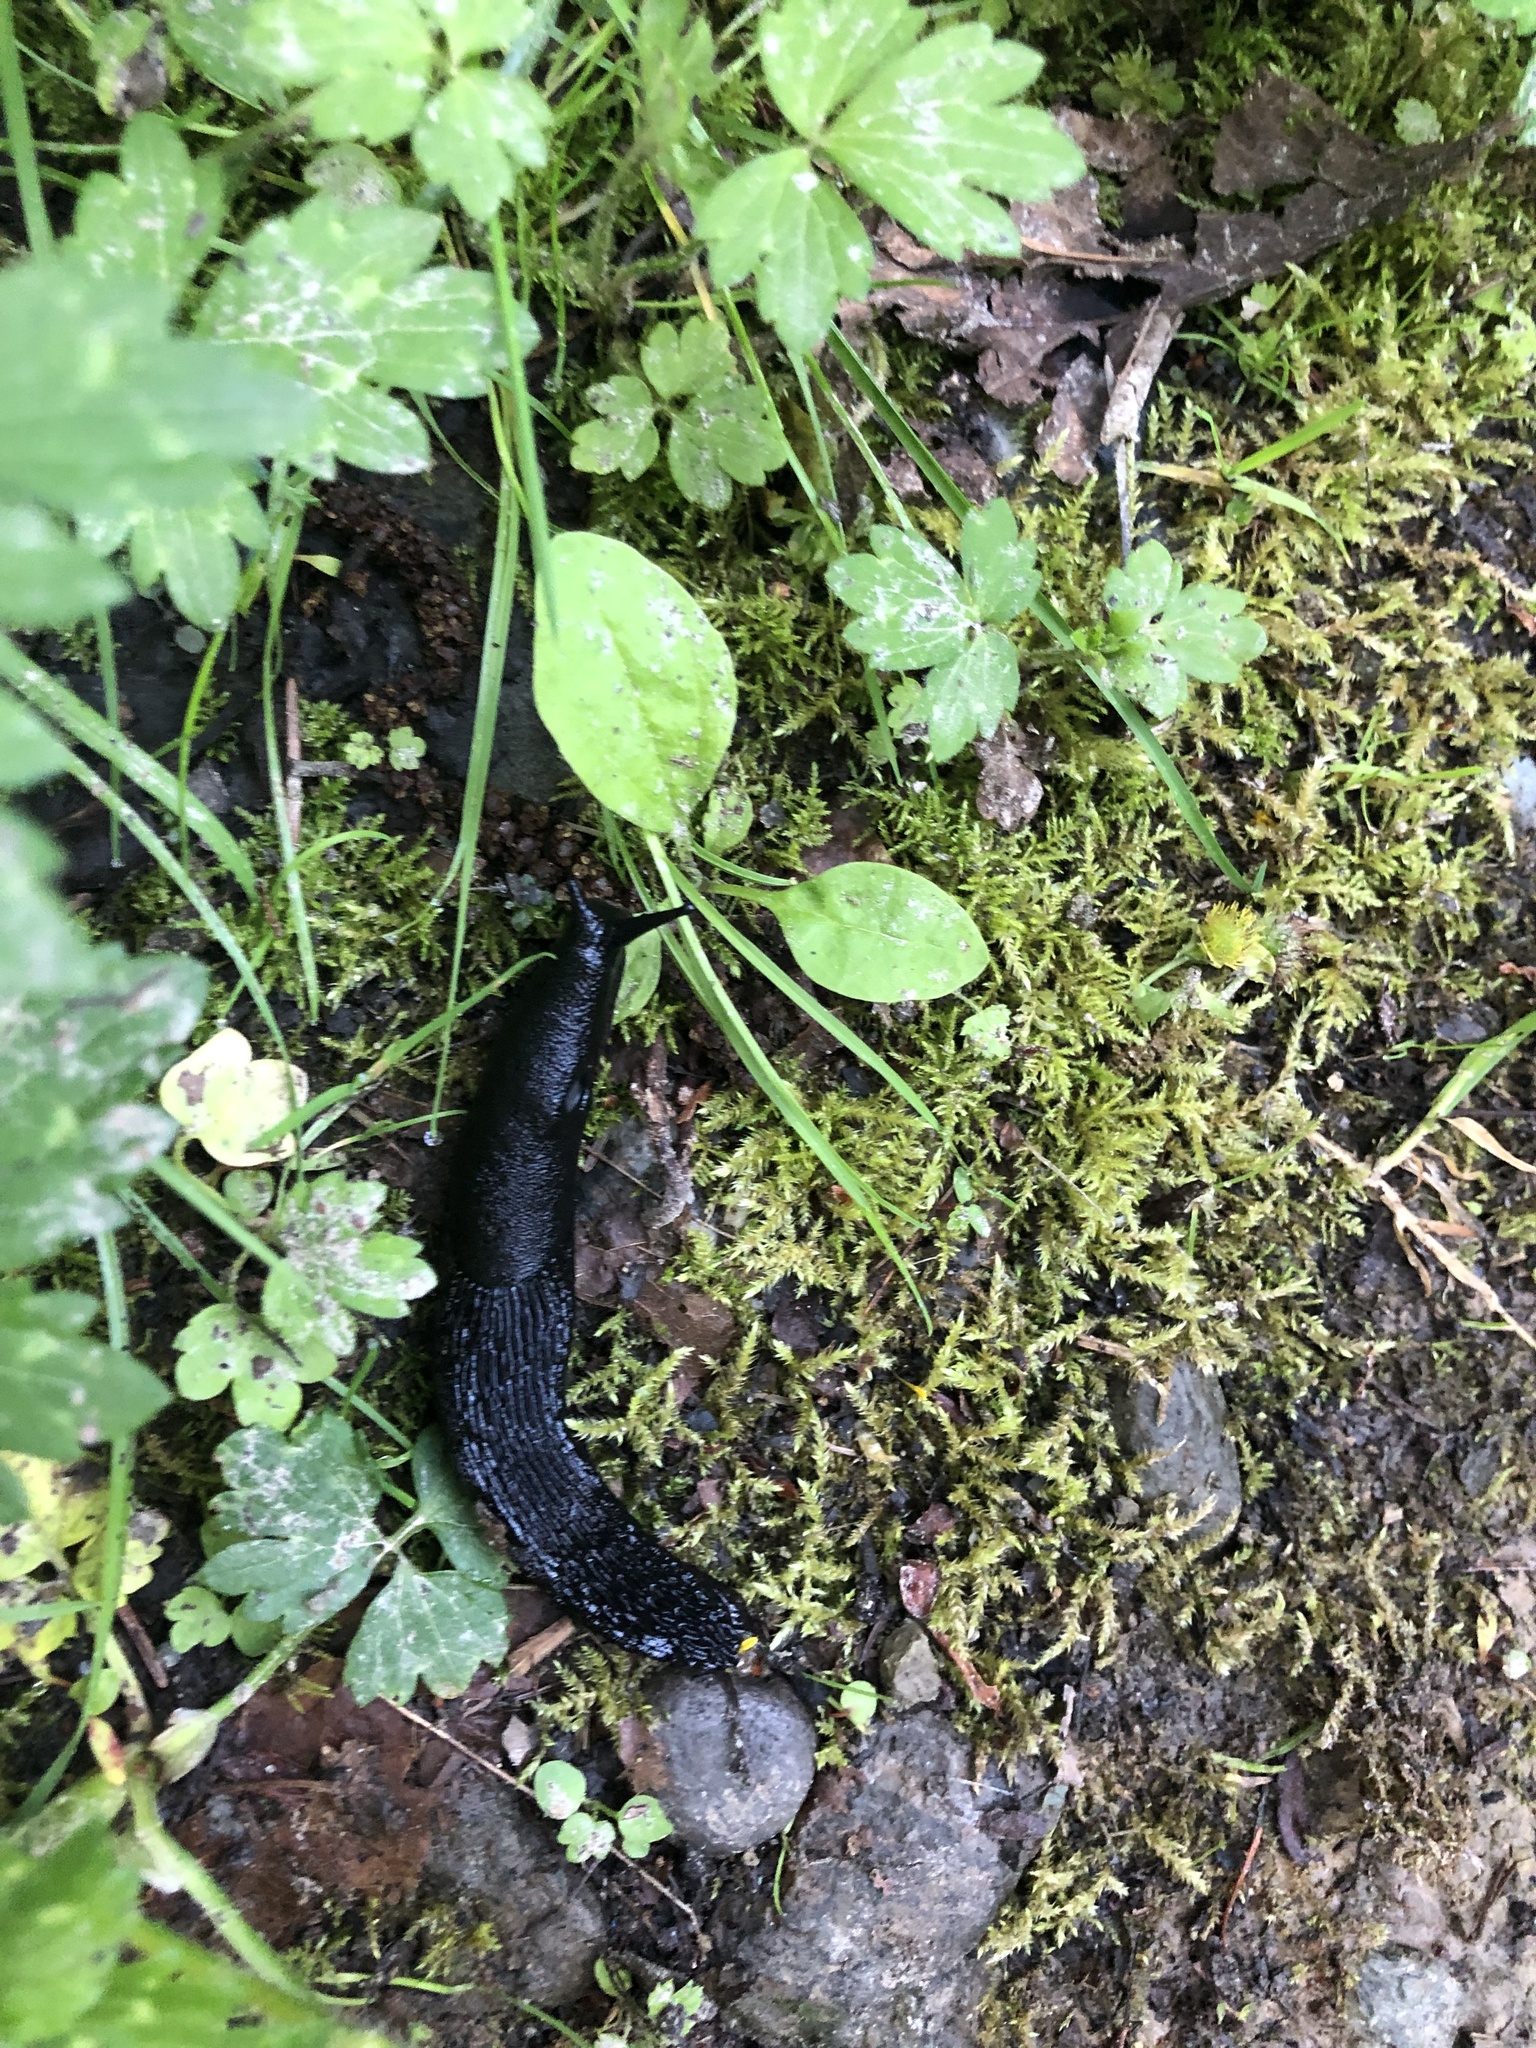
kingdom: Animalia
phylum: Mollusca
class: Gastropoda
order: Stylommatophora
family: Arionidae
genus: Arion
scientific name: Arion
